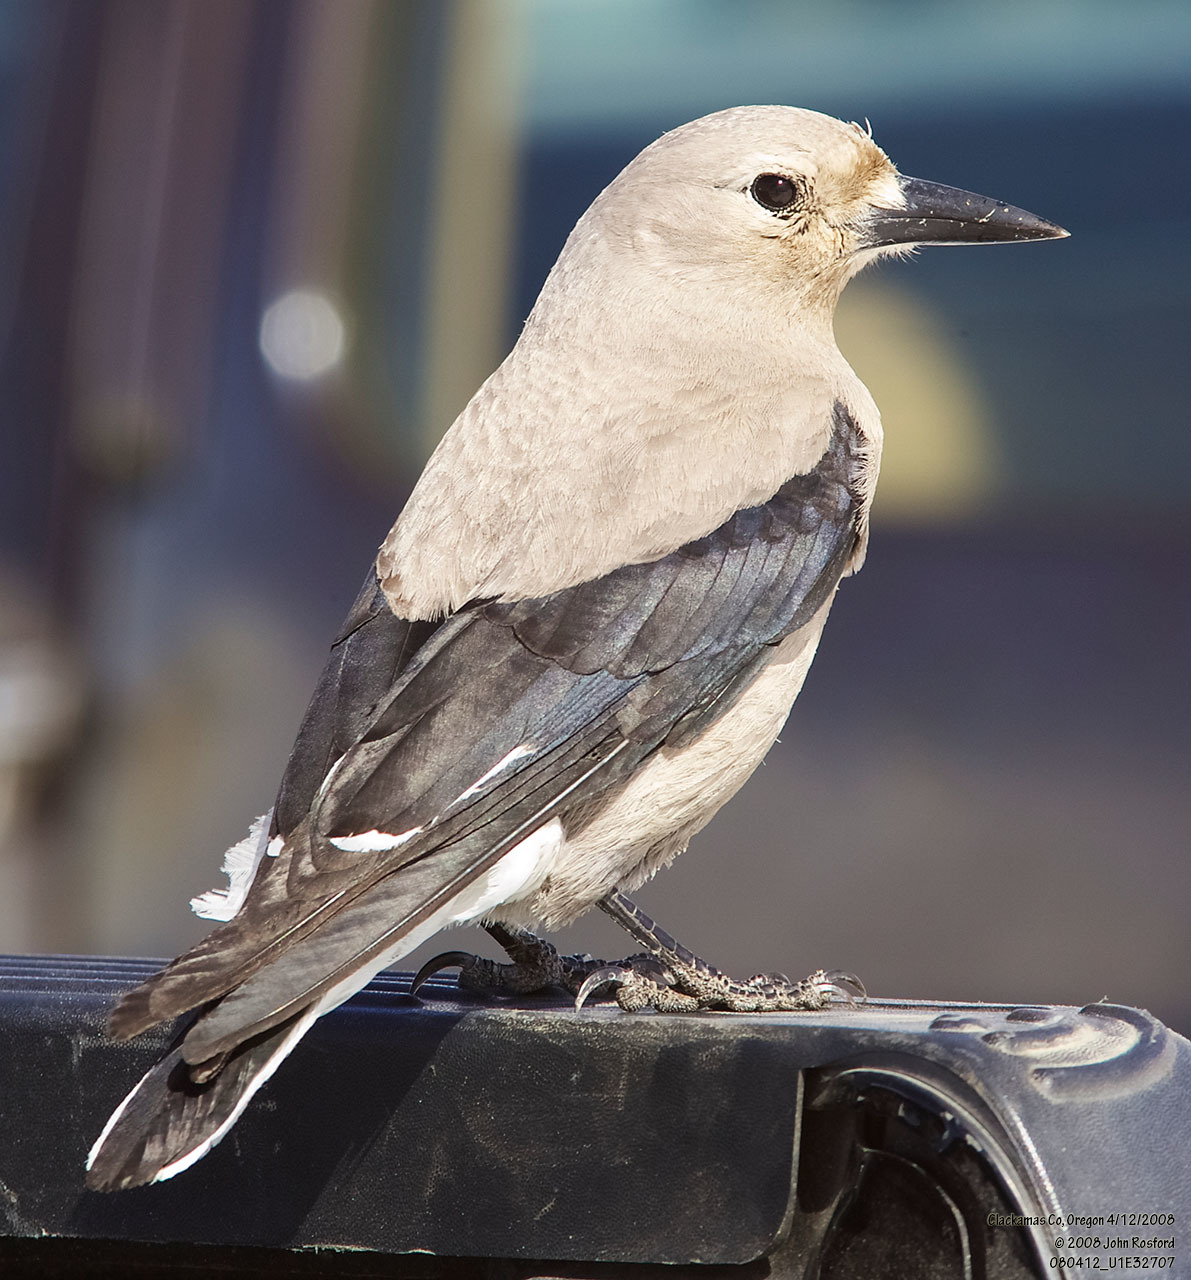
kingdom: Animalia
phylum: Chordata
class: Aves
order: Passeriformes
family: Corvidae
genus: Nucifraga
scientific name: Nucifraga columbiana
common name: Clark's nutcracker
